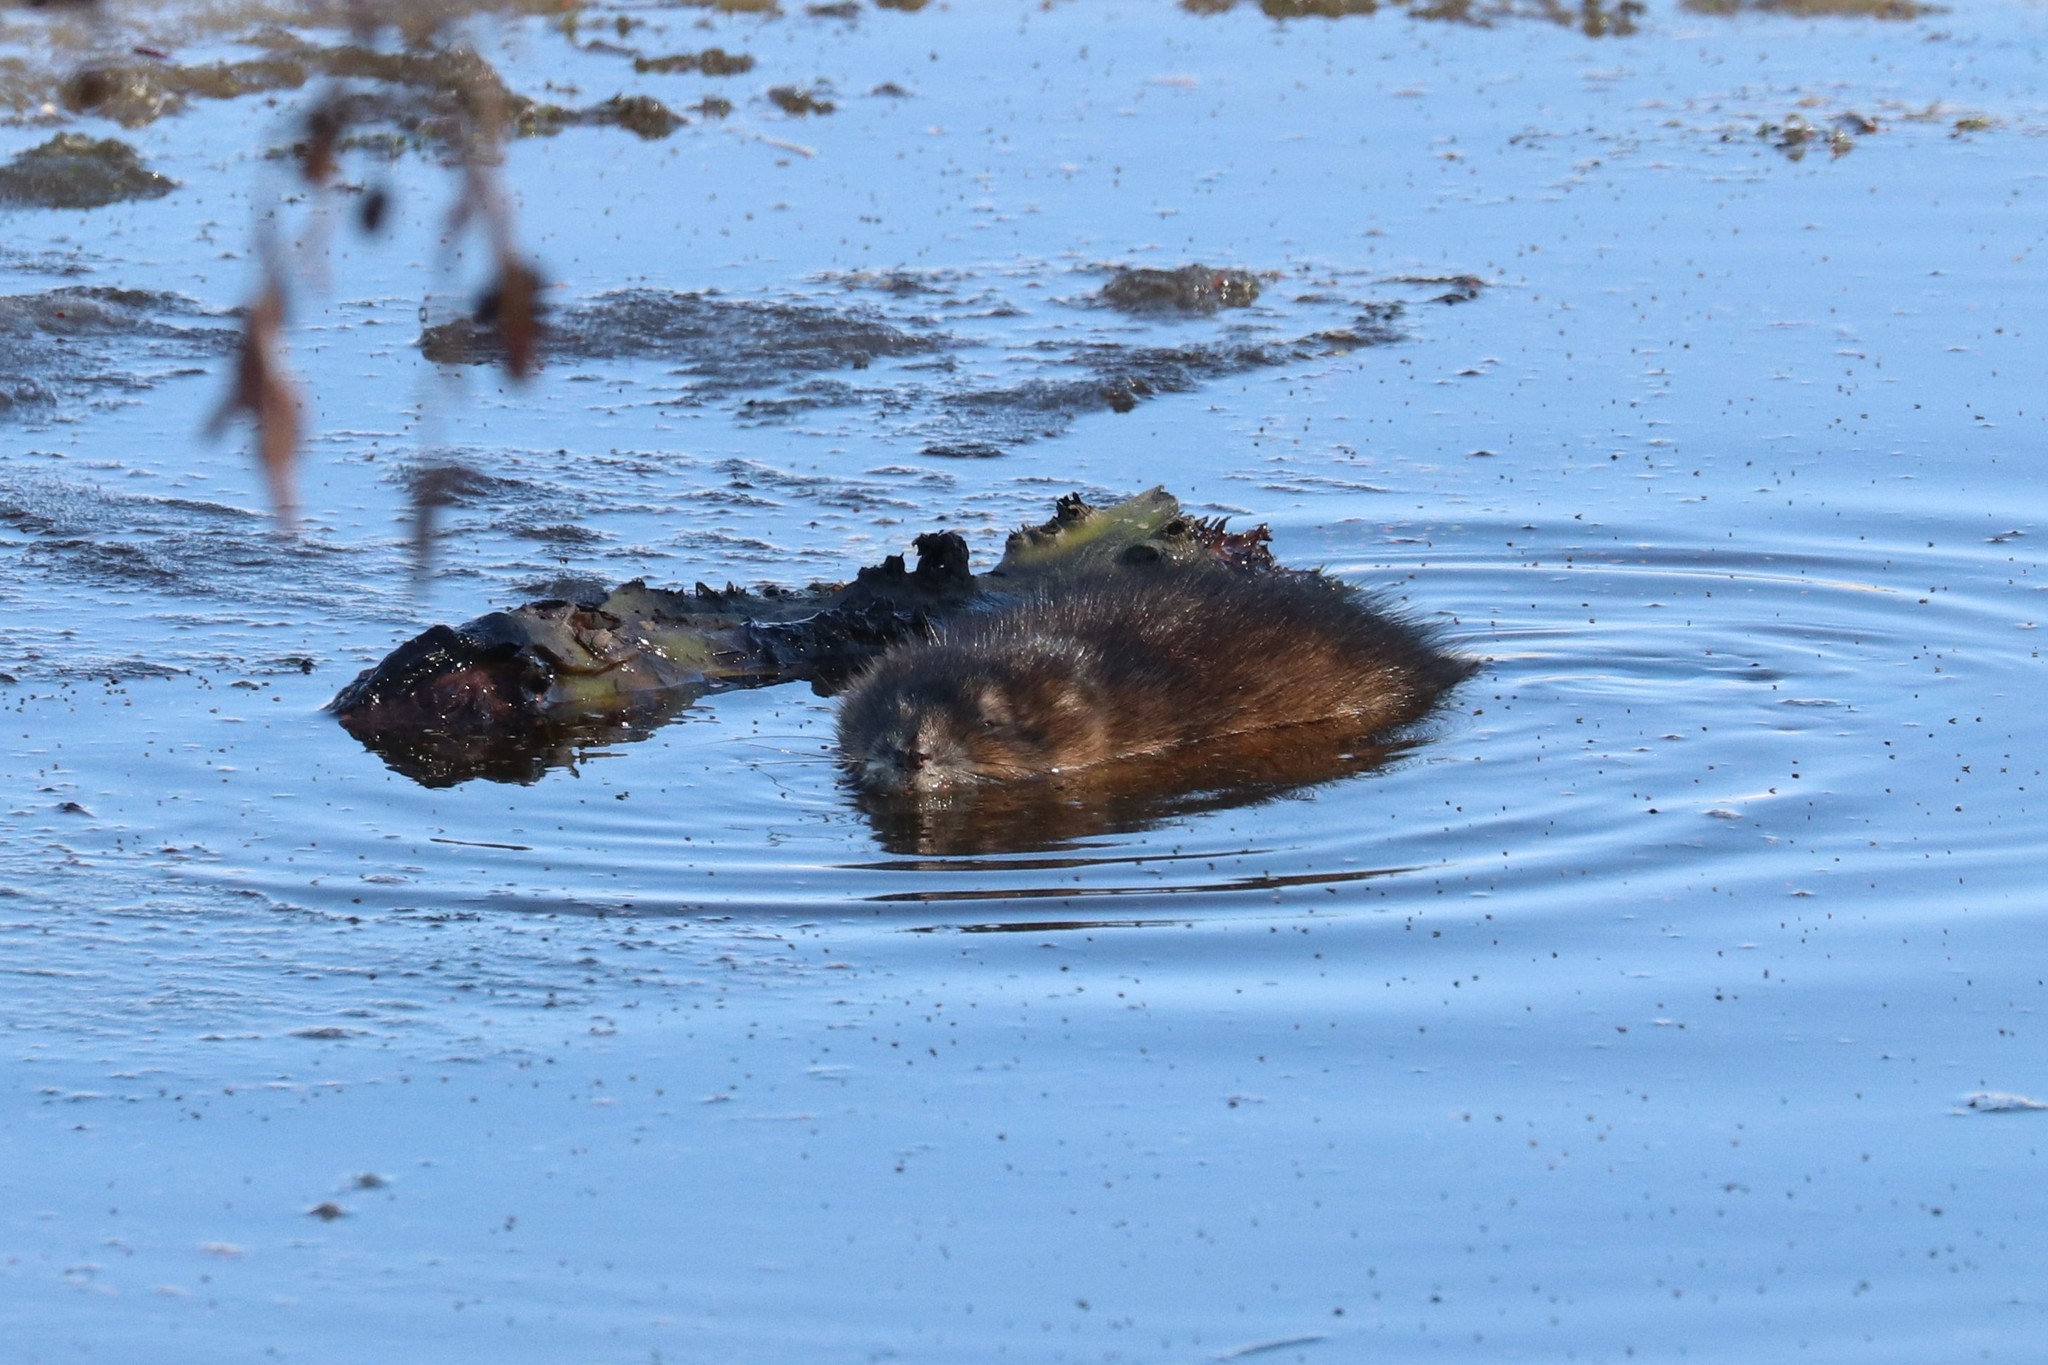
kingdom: Animalia
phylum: Chordata
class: Mammalia
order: Rodentia
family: Cricetidae
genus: Ondatra
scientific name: Ondatra zibethicus
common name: Muskrat
